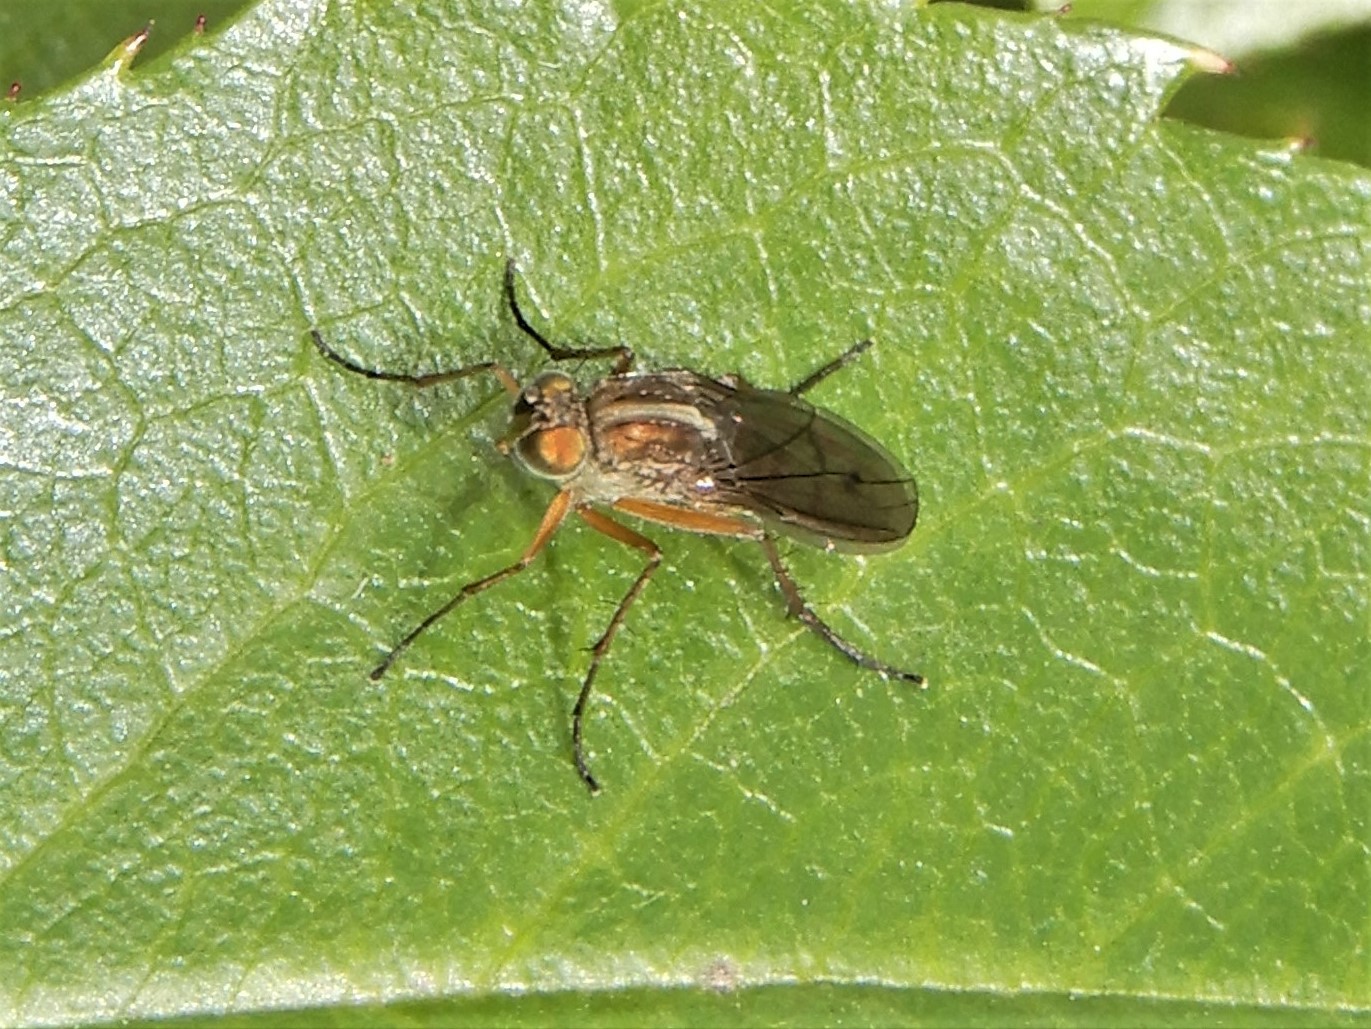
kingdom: Animalia
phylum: Arthropoda
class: Insecta
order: Diptera
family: Dolichopodidae
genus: Tetrachaetus
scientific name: Tetrachaetus bipunctatus
